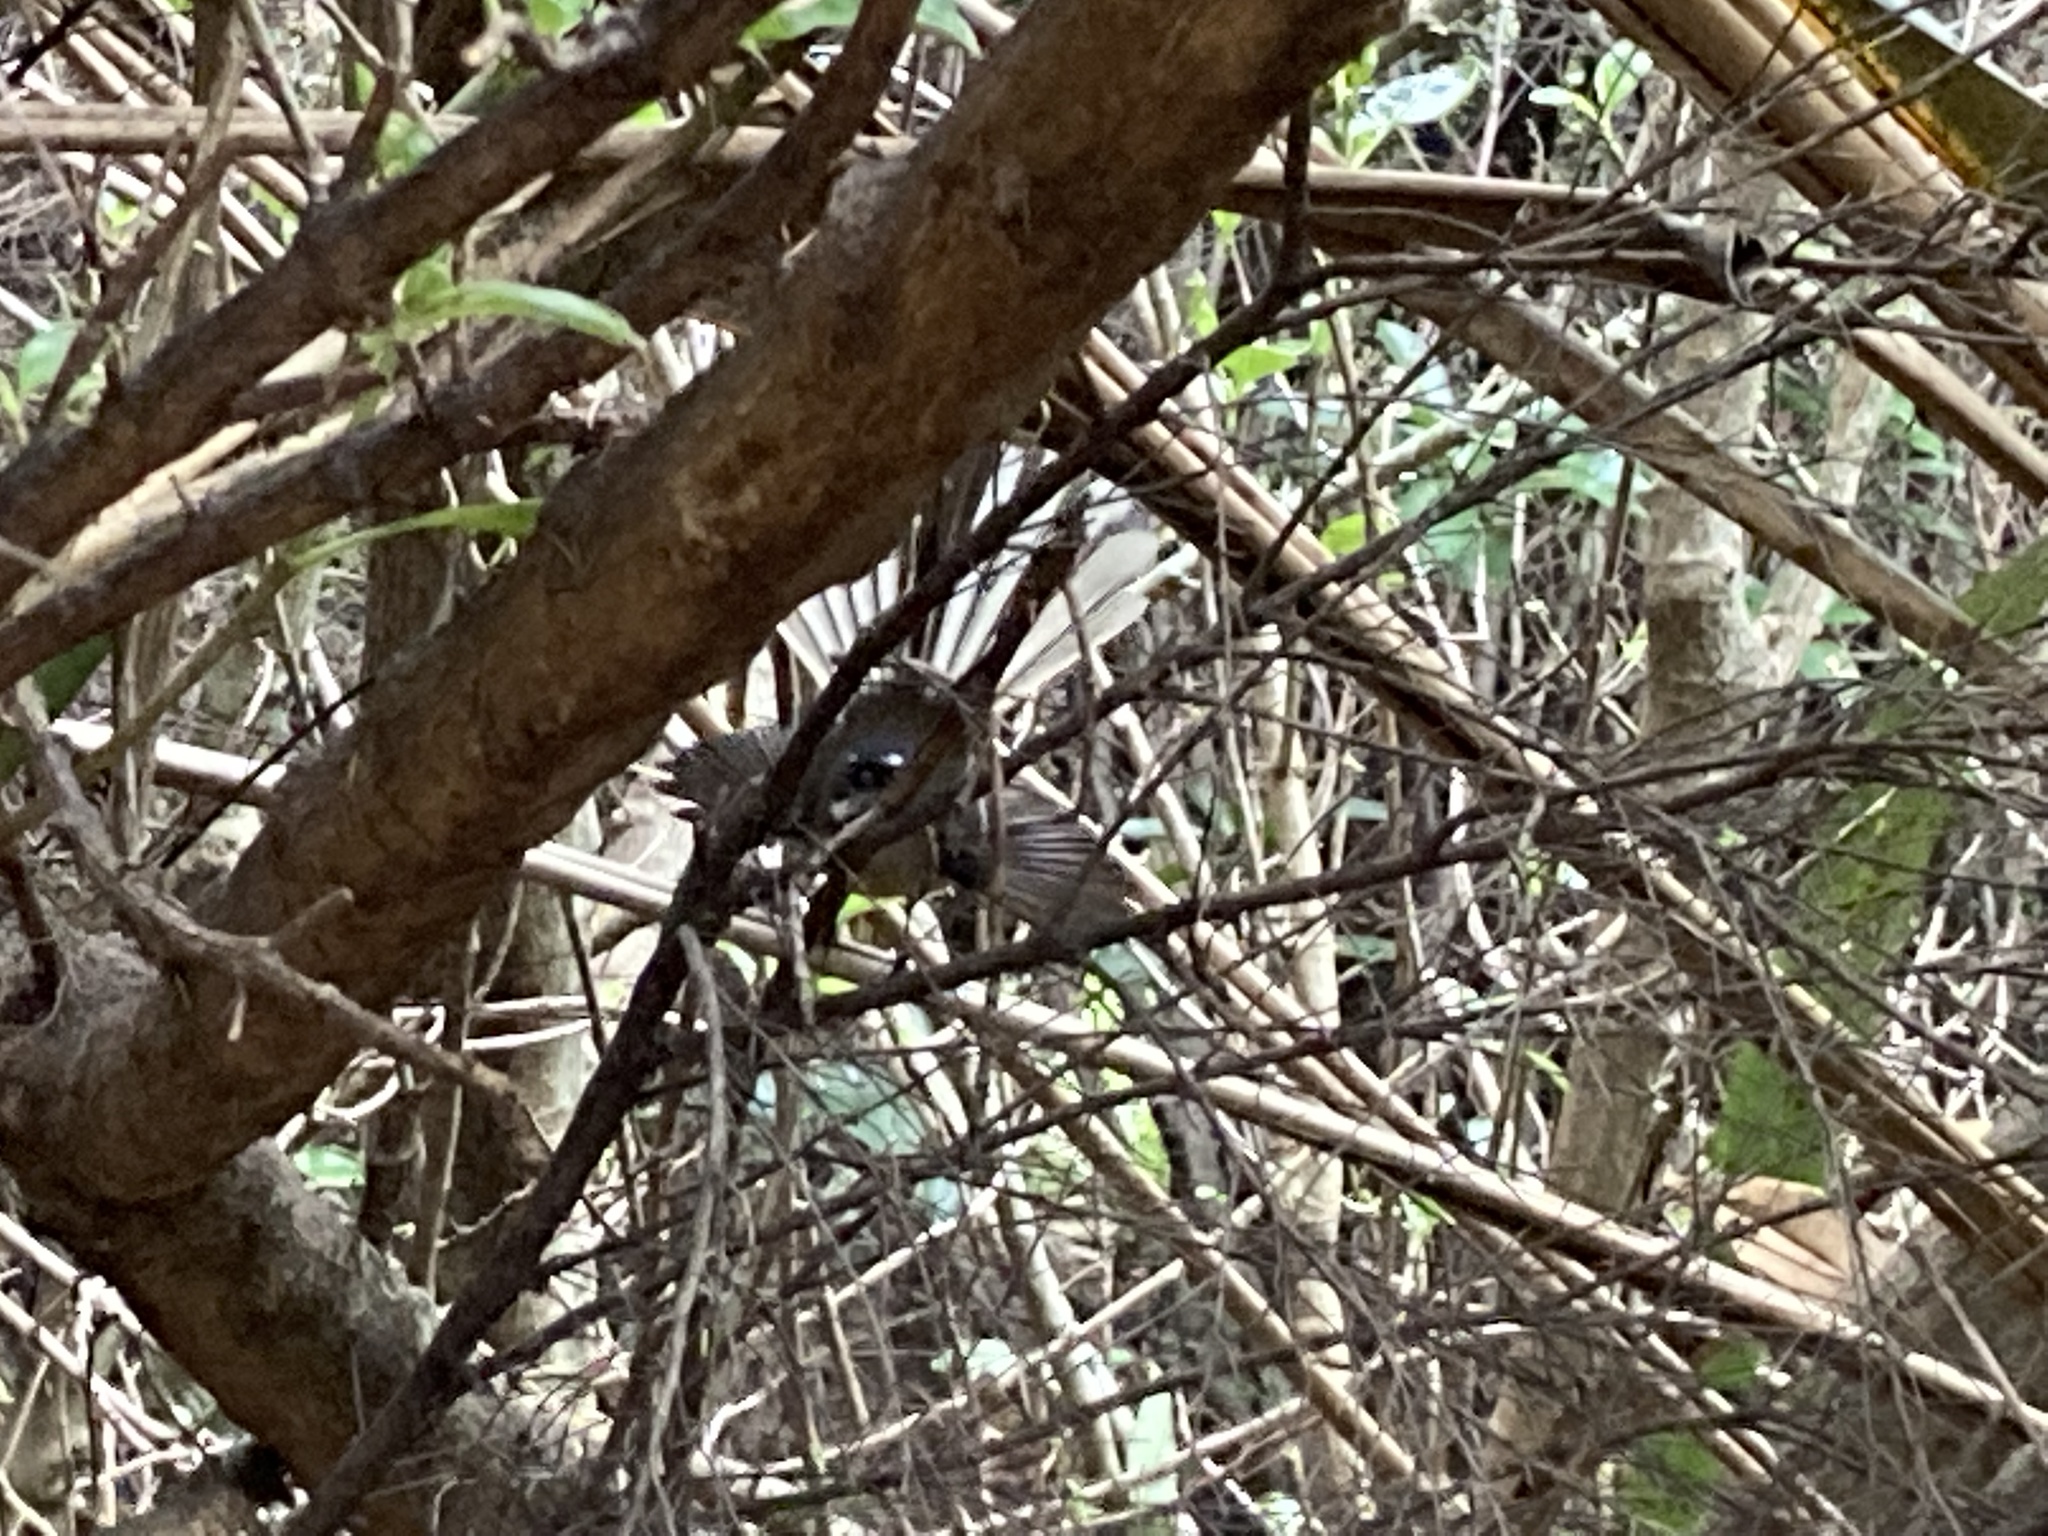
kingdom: Animalia
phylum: Chordata
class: Aves
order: Passeriformes
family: Rhipiduridae
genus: Rhipidura
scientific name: Rhipidura fuliginosa
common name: New zealand fantail
